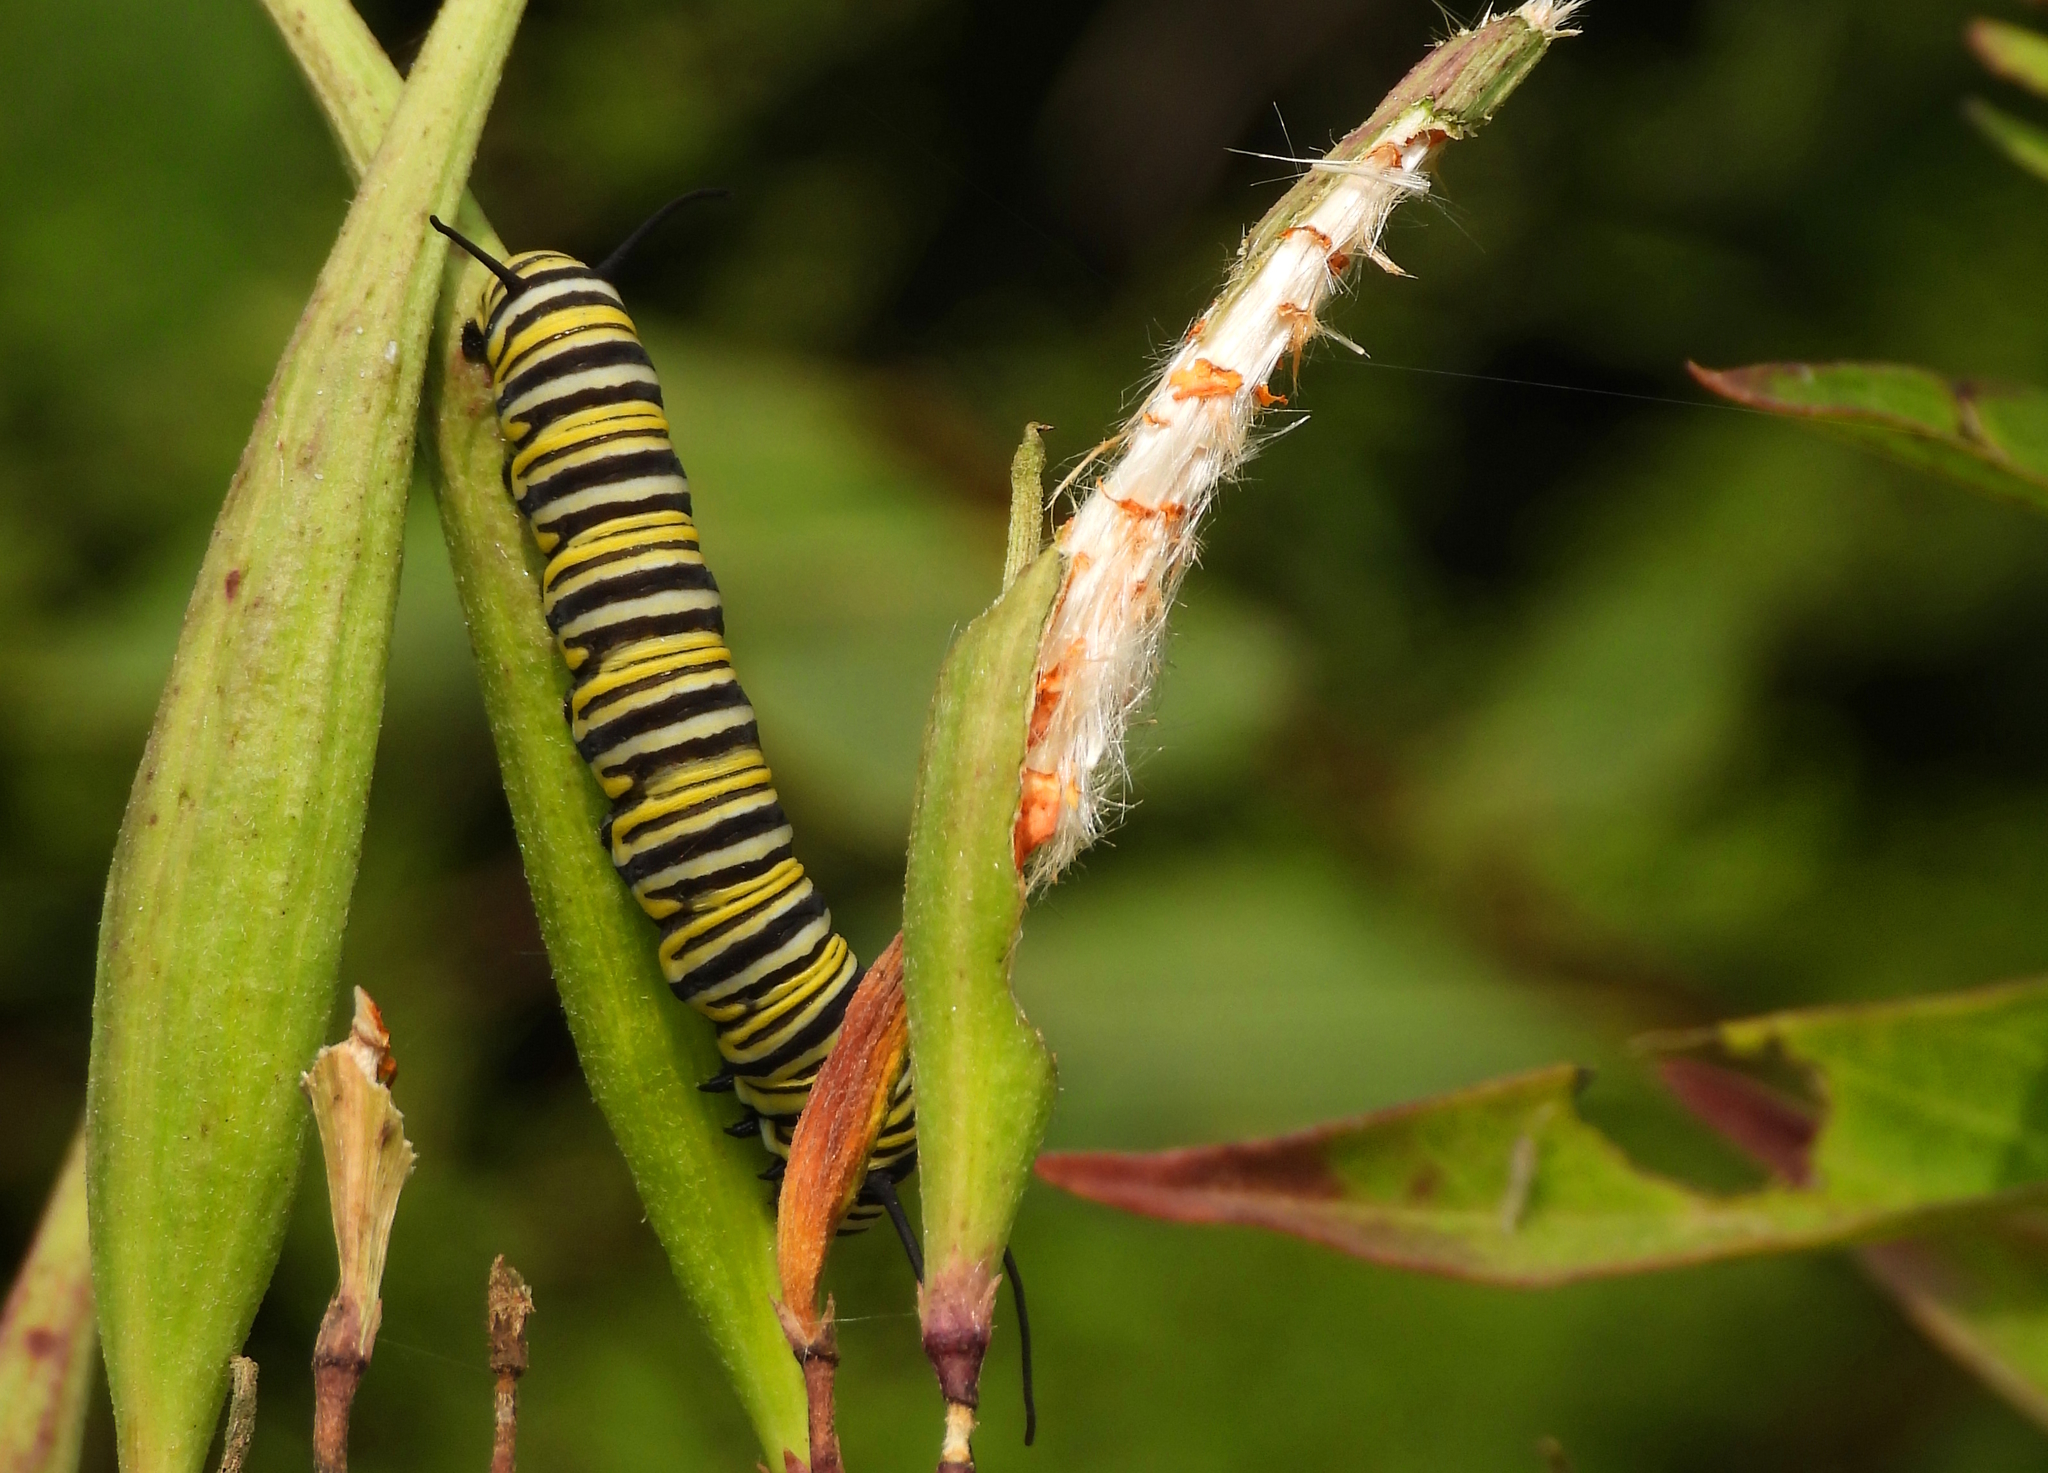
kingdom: Animalia
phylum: Arthropoda
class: Insecta
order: Lepidoptera
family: Nymphalidae
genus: Danaus
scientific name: Danaus plexippus
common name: Monarch
